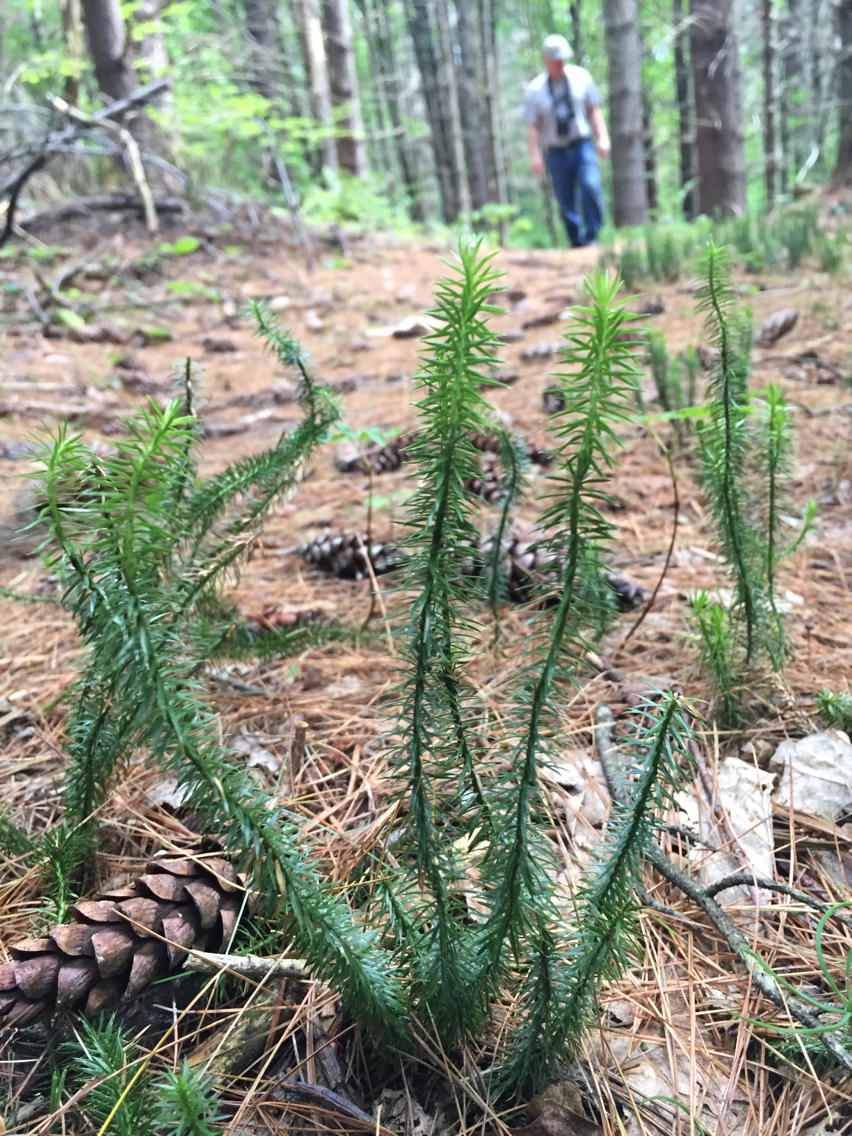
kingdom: Plantae
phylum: Tracheophyta
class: Lycopodiopsida
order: Lycopodiales
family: Lycopodiaceae
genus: Spinulum
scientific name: Spinulum annotinum
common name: Interrupted club-moss
